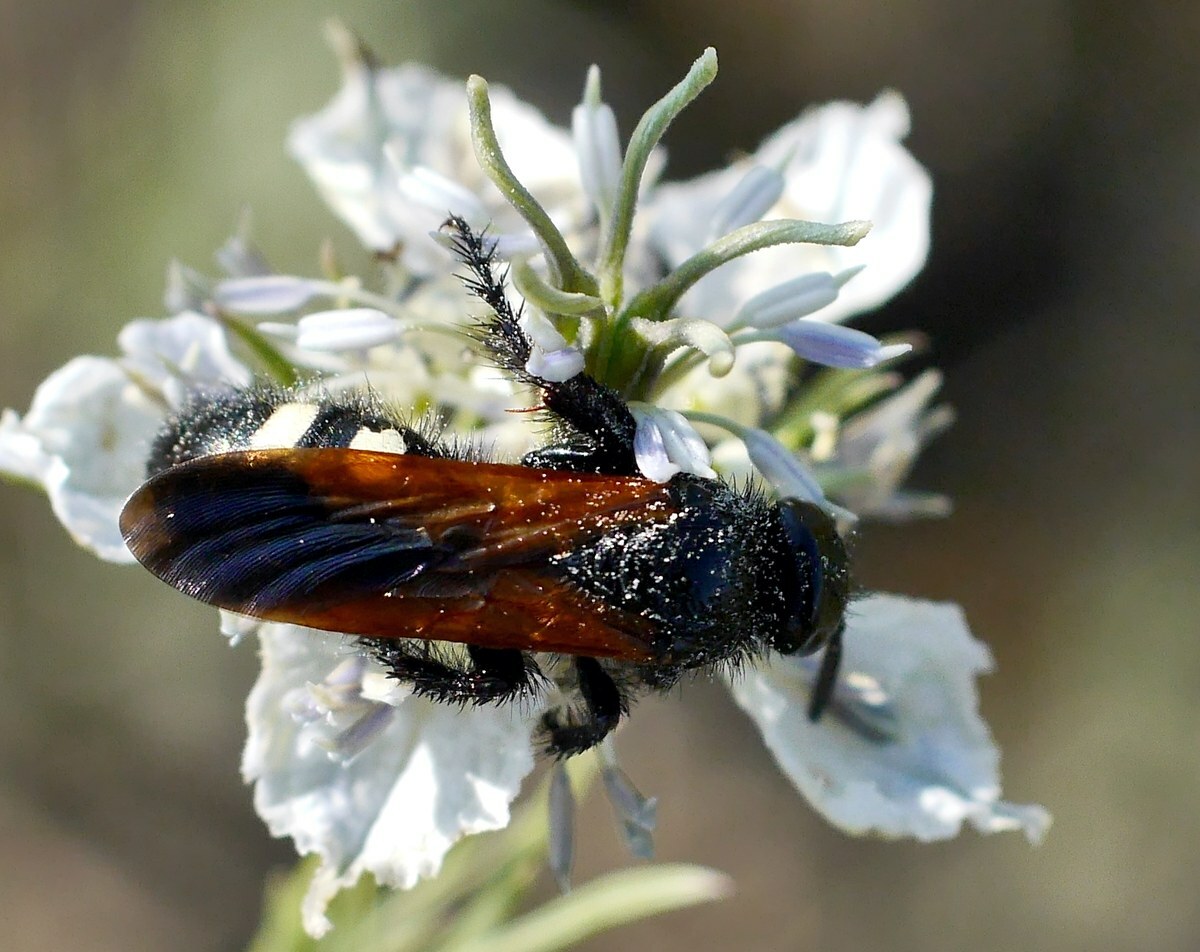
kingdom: Animalia
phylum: Arthropoda
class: Insecta
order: Hymenoptera
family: Vespidae
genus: Vespa
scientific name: Vespa sexmaculata
